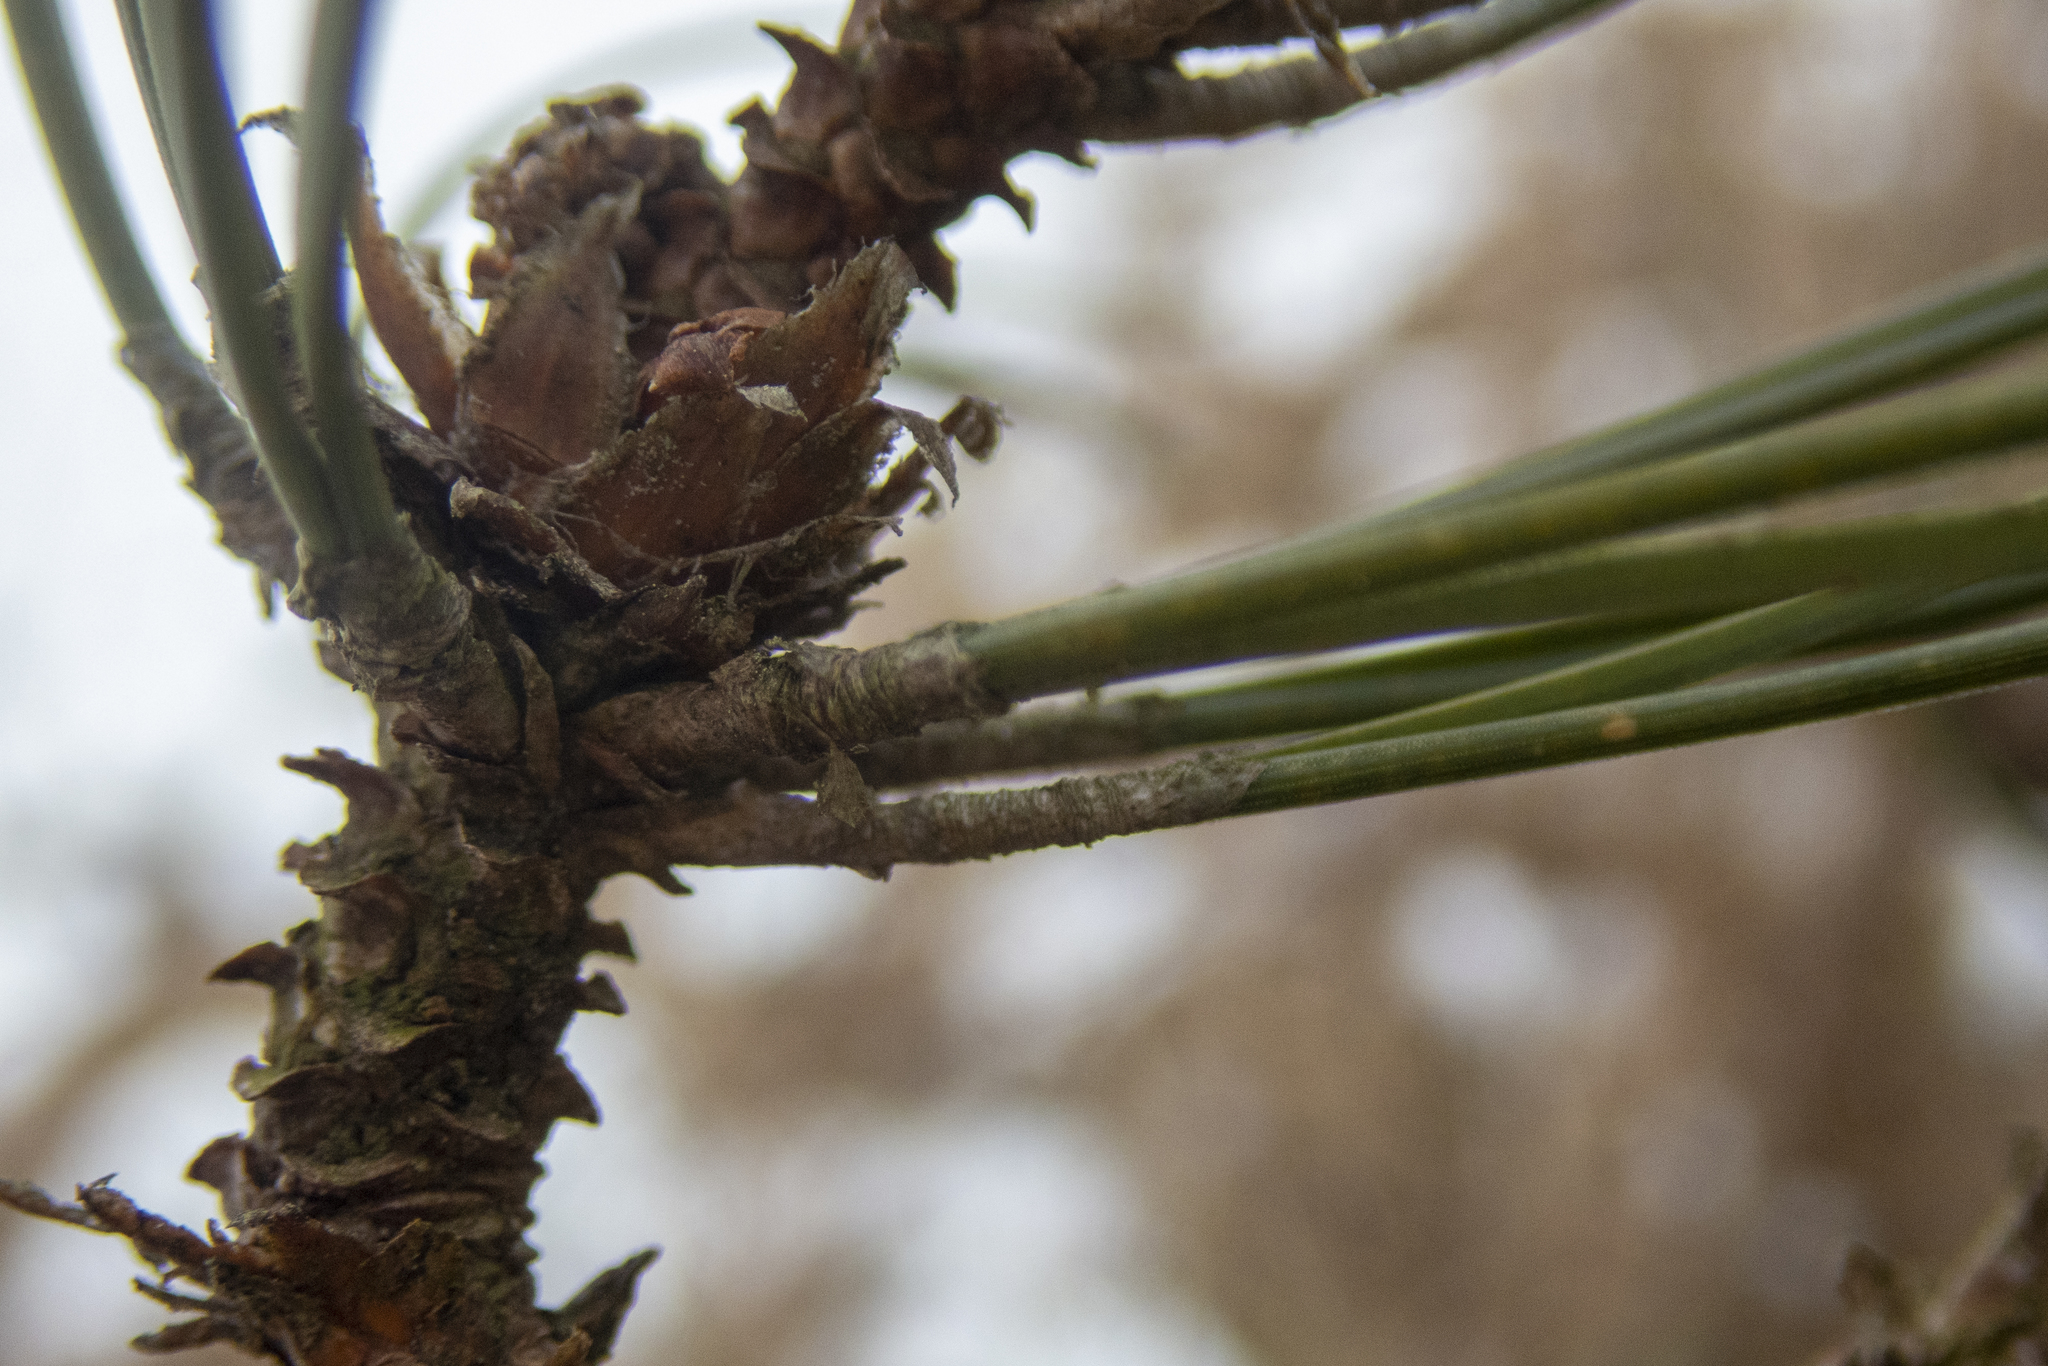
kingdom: Plantae
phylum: Tracheophyta
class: Pinopsida
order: Pinales
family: Pinaceae
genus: Pinus
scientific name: Pinus resinosa
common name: Norway pine
